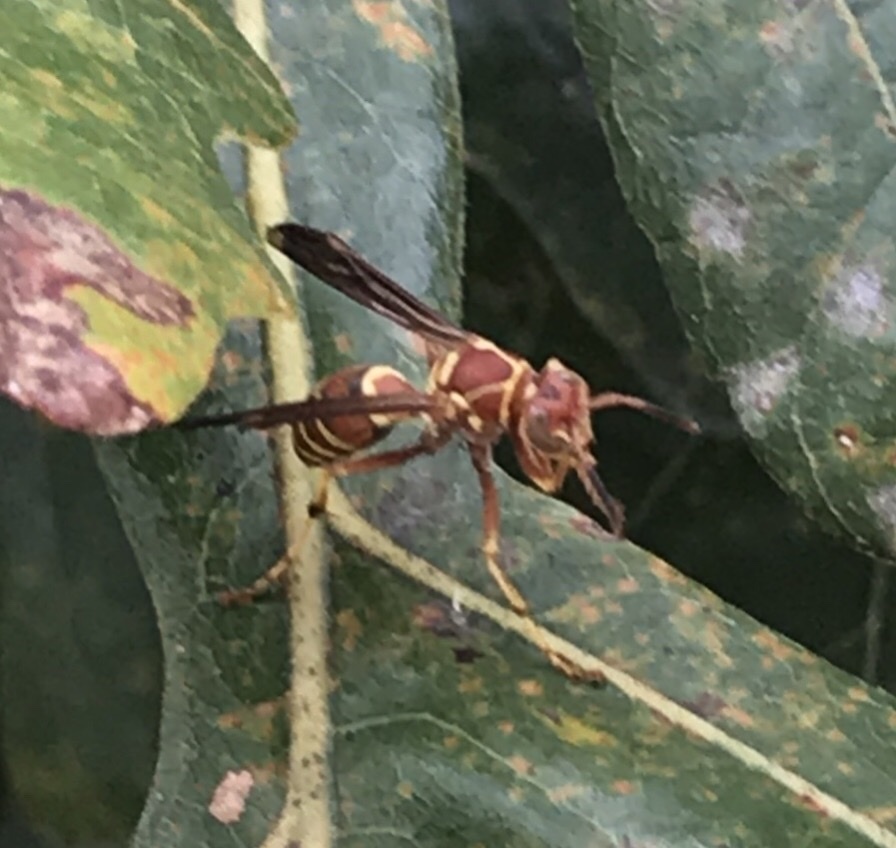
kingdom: Animalia
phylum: Arthropoda
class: Insecta
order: Hymenoptera
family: Eumenidae
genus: Polistes
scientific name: Polistes dorsalis
